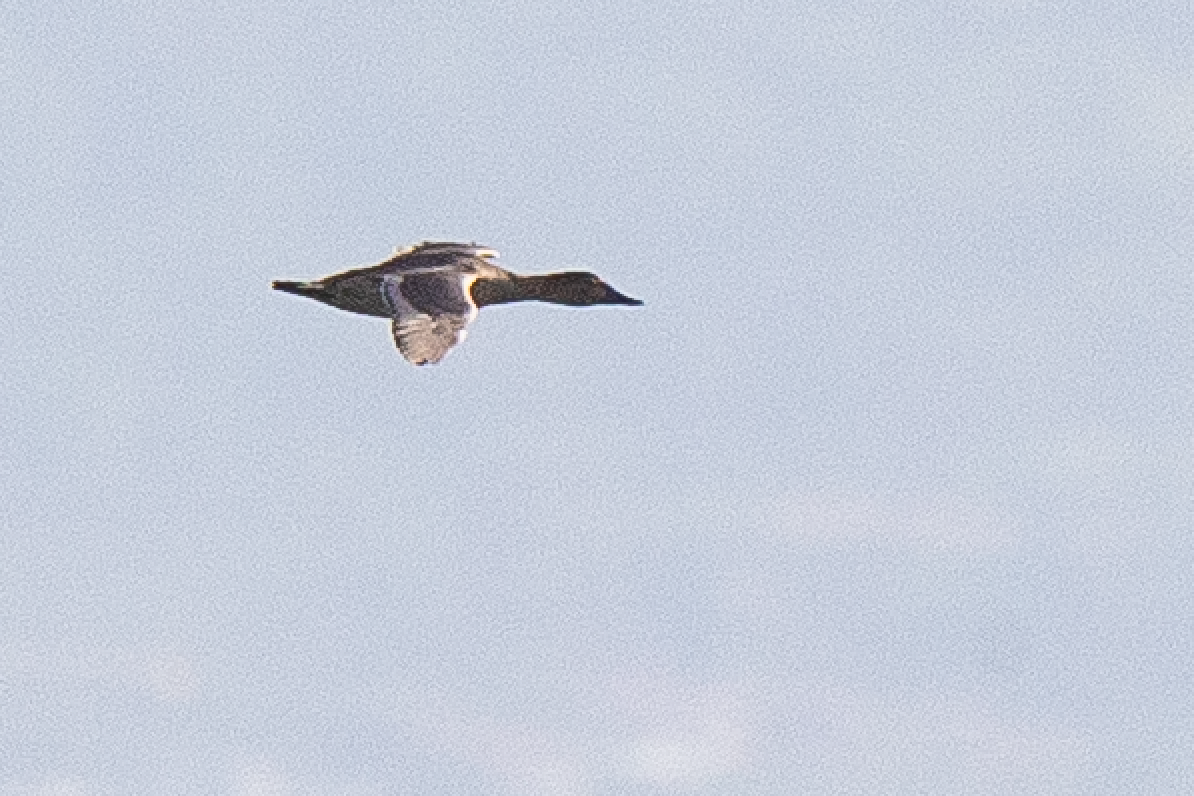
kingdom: Animalia
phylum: Chordata
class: Aves
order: Anseriformes
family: Anatidae
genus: Aythya
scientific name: Aythya ferina
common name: Common pochard
